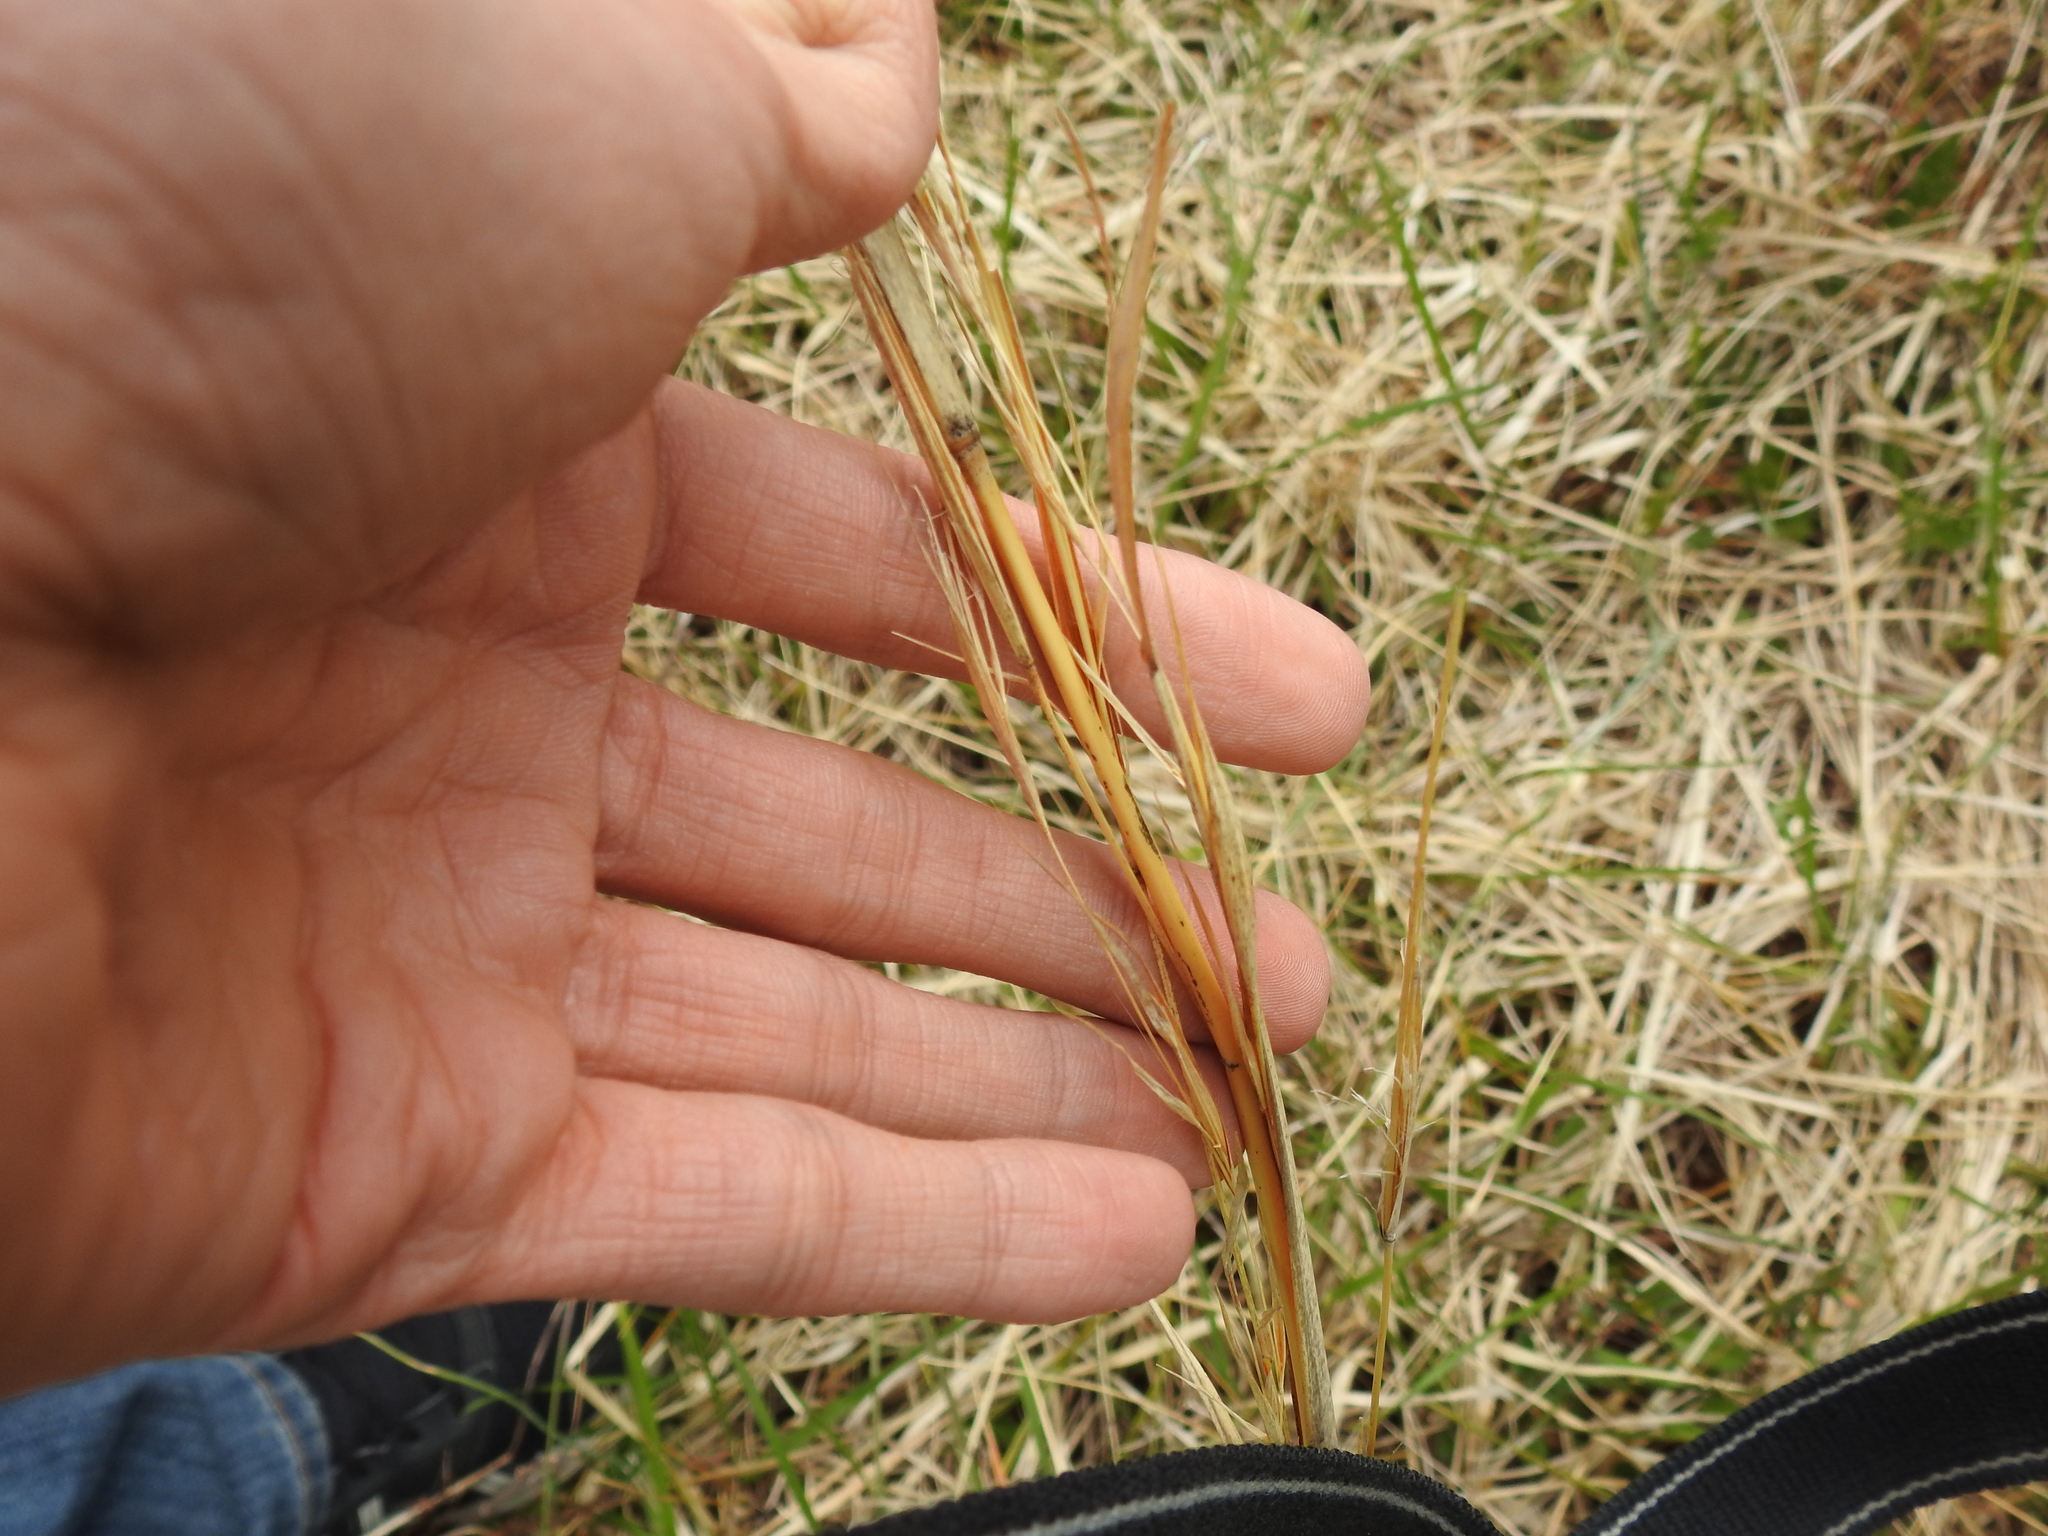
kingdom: Plantae
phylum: Tracheophyta
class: Liliopsida
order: Poales
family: Poaceae
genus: Andropogon
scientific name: Andropogon virginicus
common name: Broomsedge bluestem
